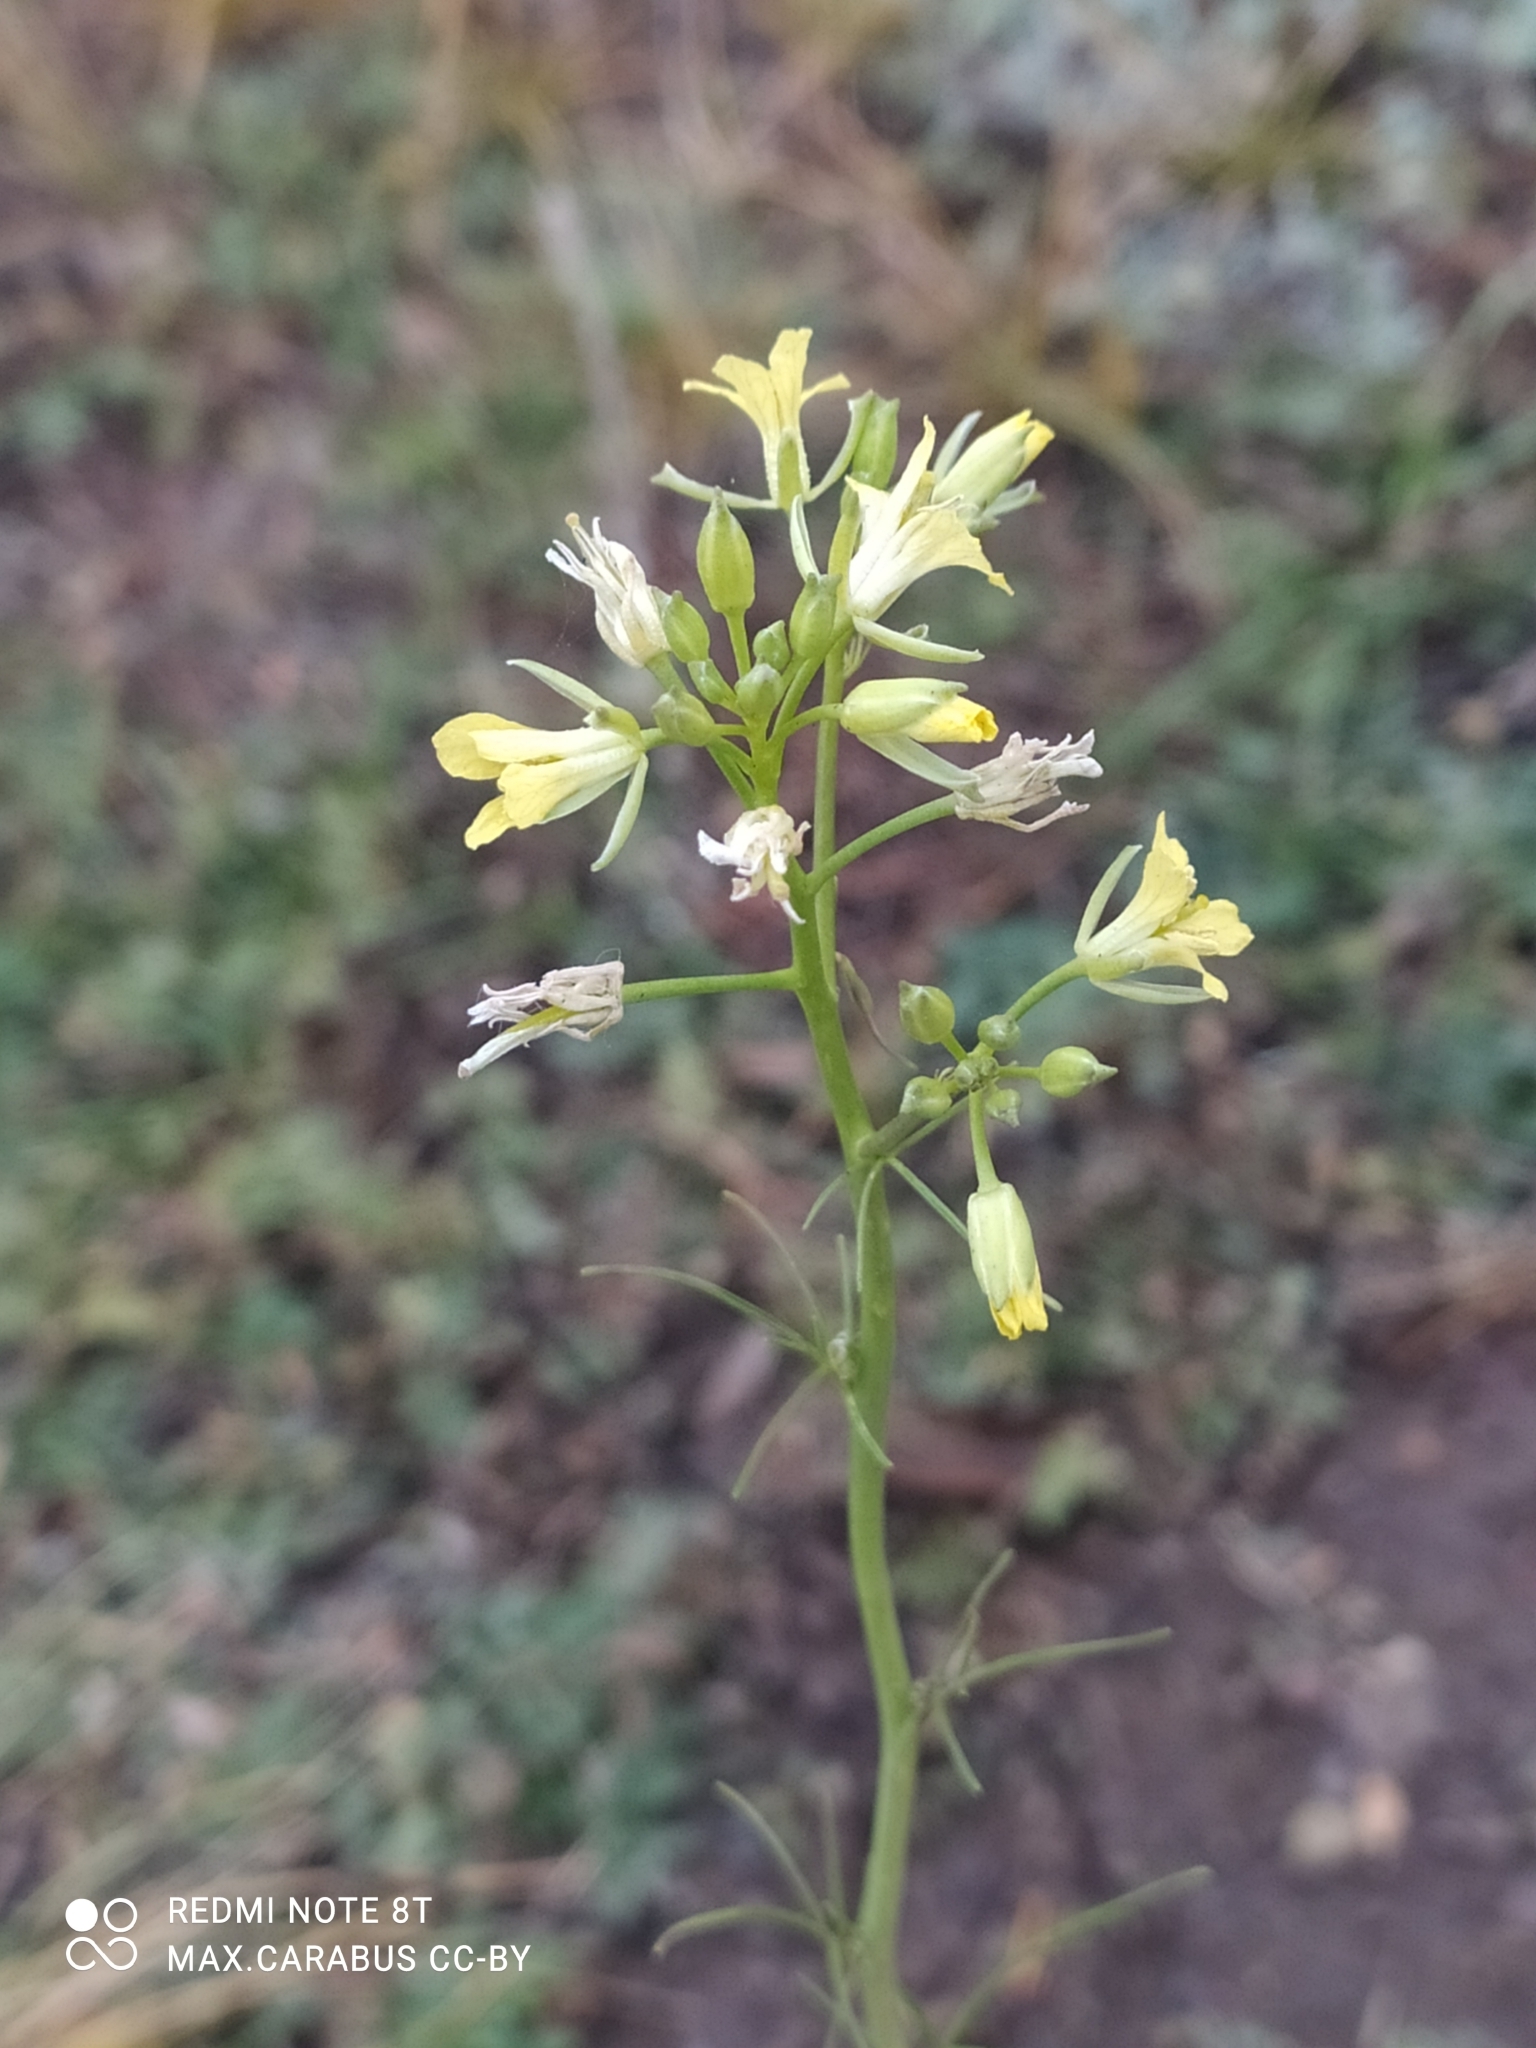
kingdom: Plantae
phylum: Tracheophyta
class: Magnoliopsida
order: Brassicales
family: Brassicaceae
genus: Sisymbrium
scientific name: Sisymbrium altissimum
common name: Tall rocket
